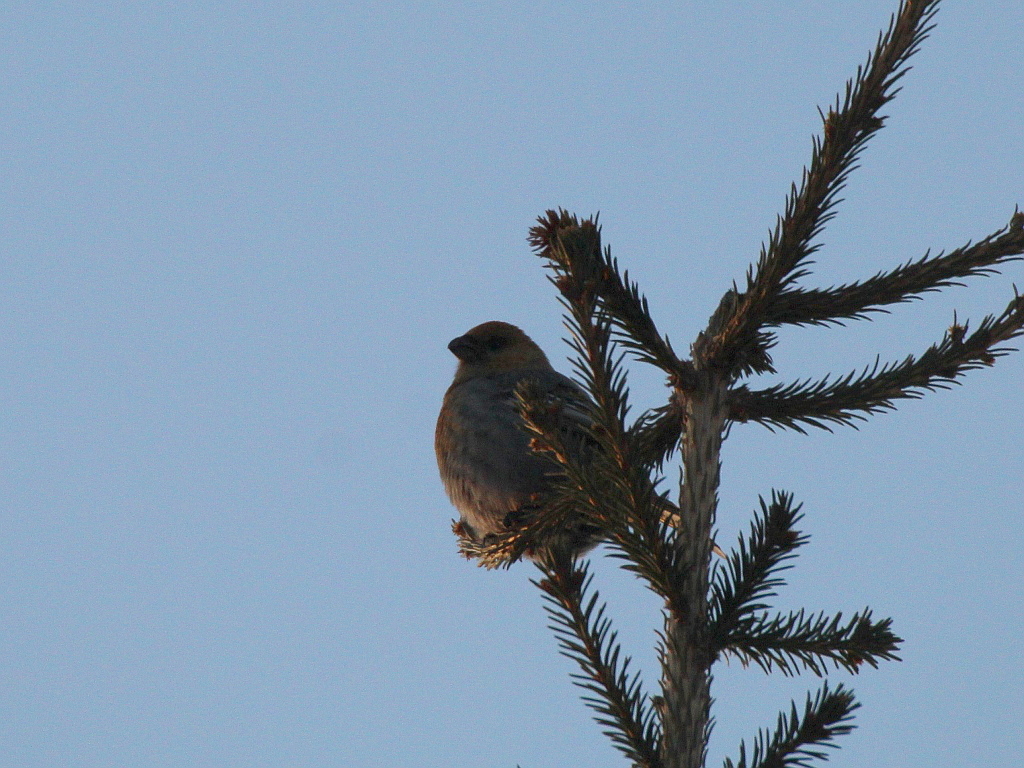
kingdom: Animalia
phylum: Chordata
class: Aves
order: Passeriformes
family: Fringillidae
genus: Pinicola
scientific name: Pinicola enucleator
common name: Pine grosbeak
